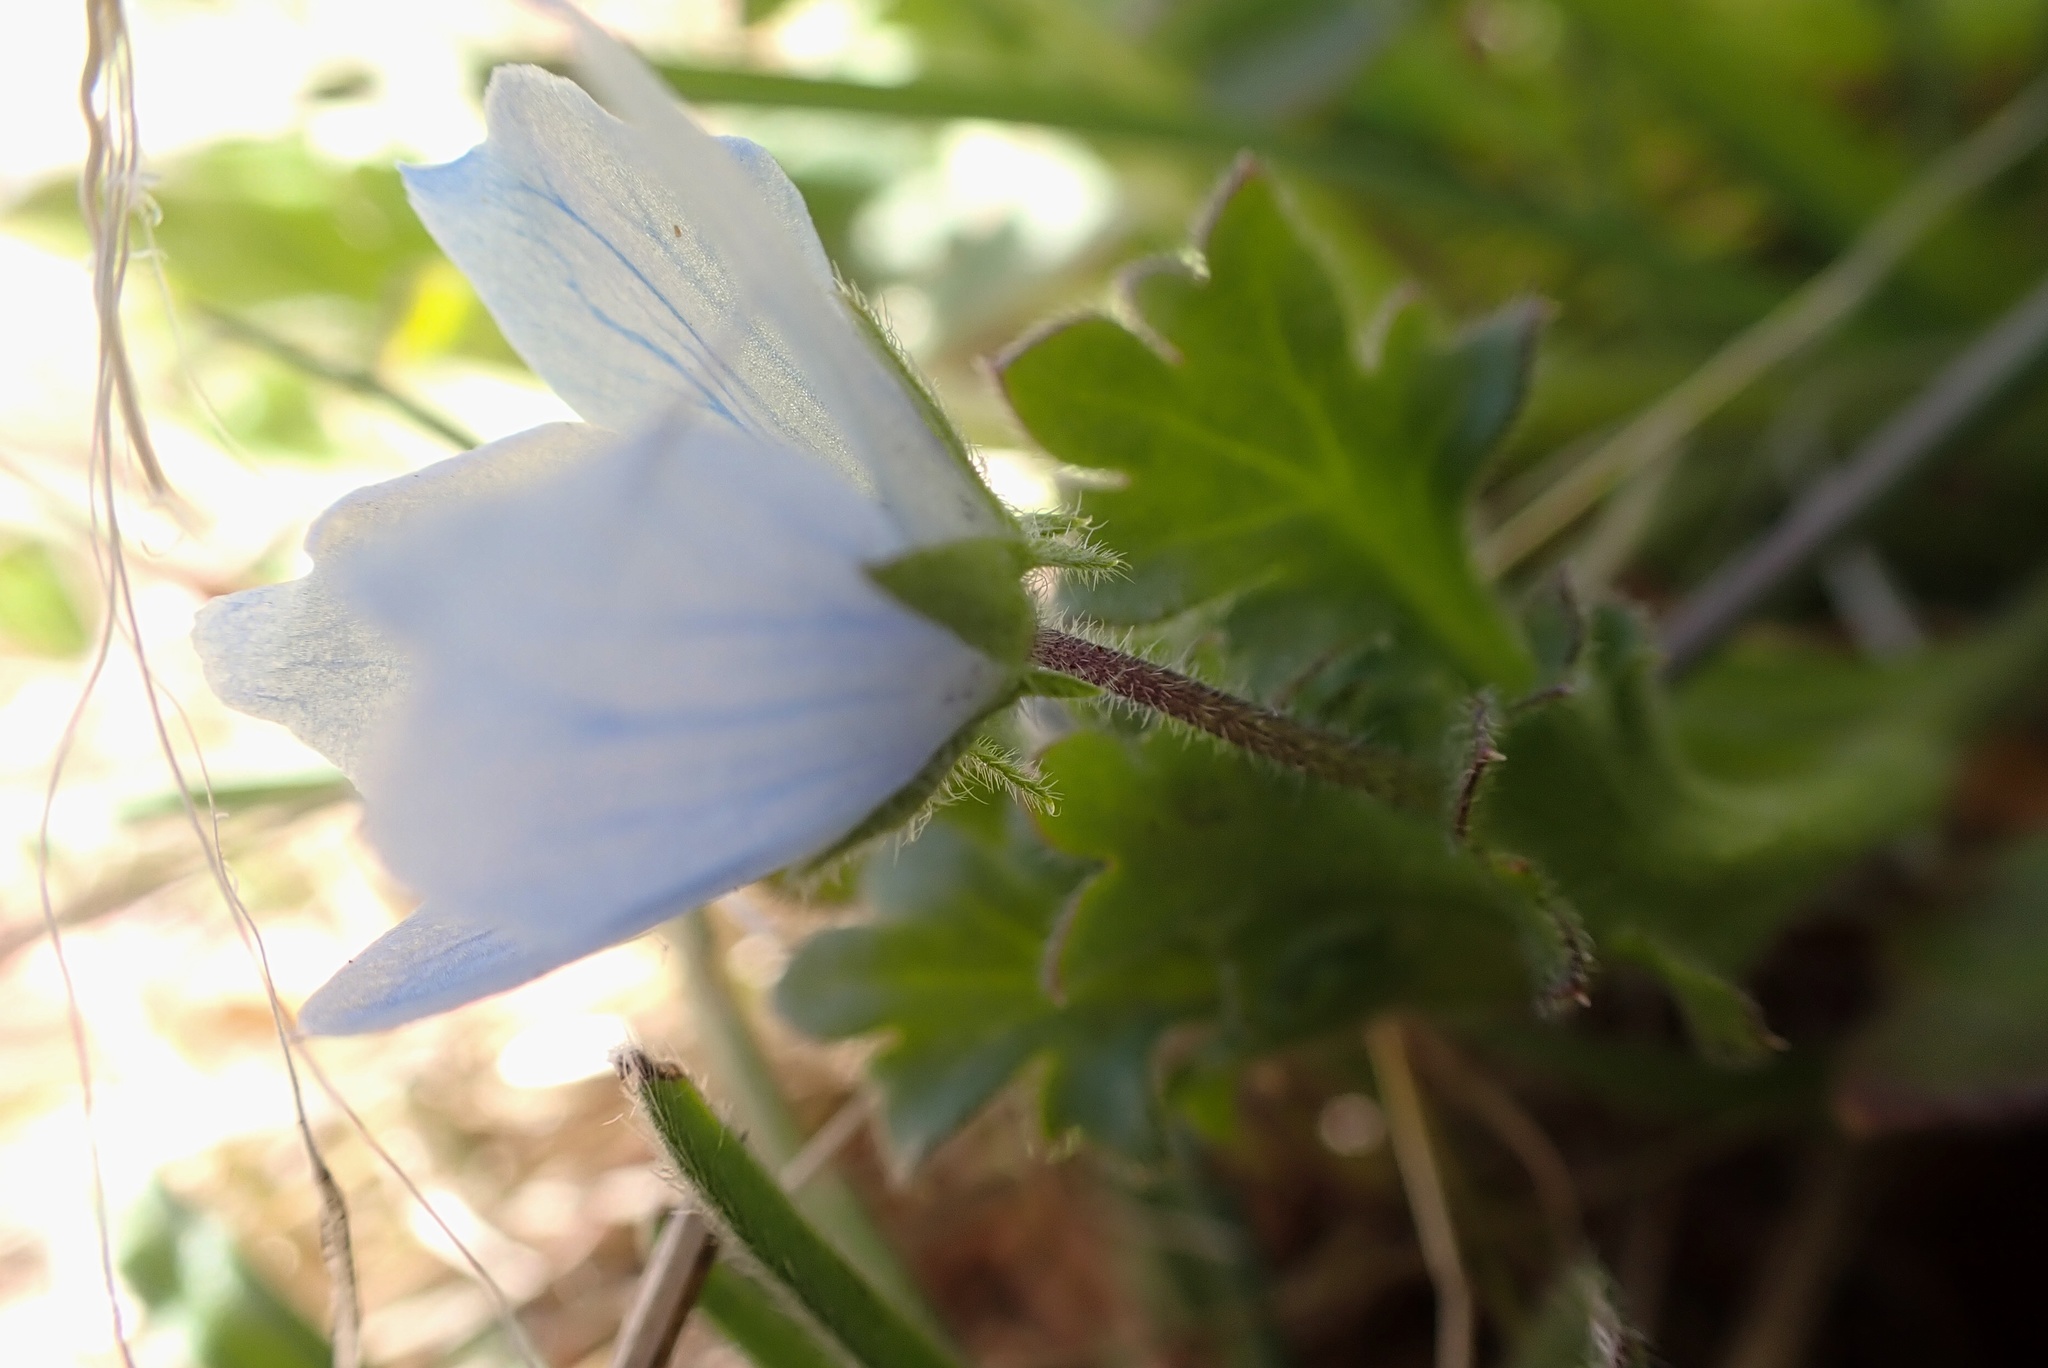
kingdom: Plantae
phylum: Tracheophyta
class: Magnoliopsida
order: Boraginales
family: Hydrophyllaceae
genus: Nemophila
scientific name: Nemophila menziesii
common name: Baby's-blue-eyes
